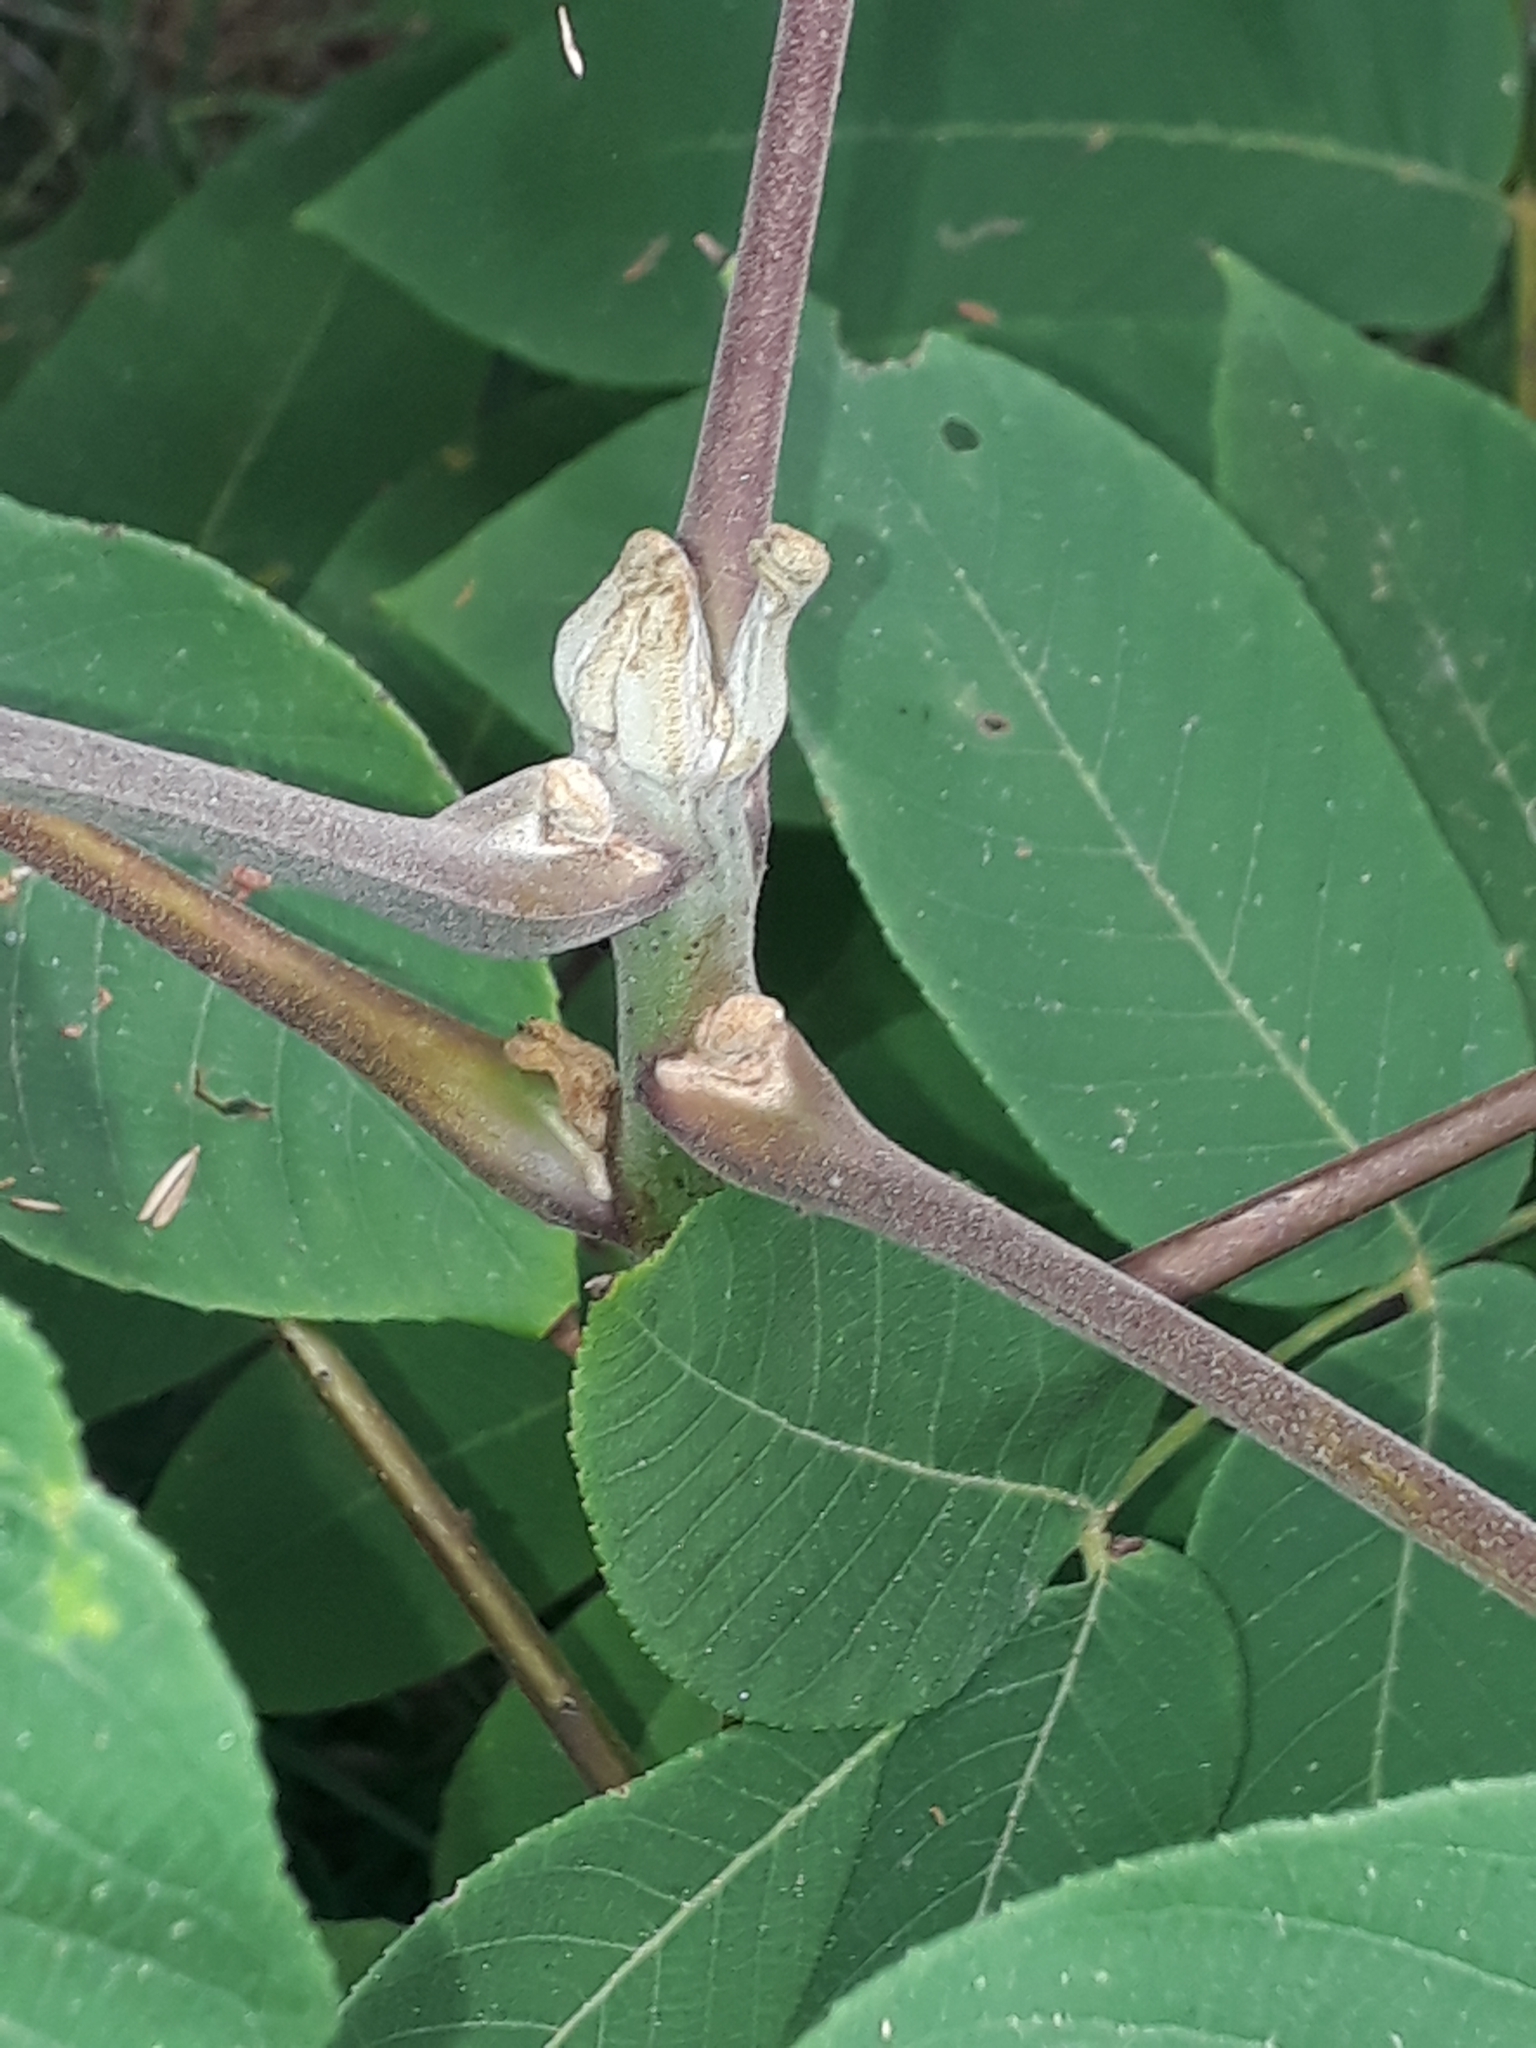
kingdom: Plantae
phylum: Tracheophyta
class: Magnoliopsida
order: Fagales
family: Juglandaceae
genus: Juglans
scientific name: Juglans ailantifolia
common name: Japanese walnut
